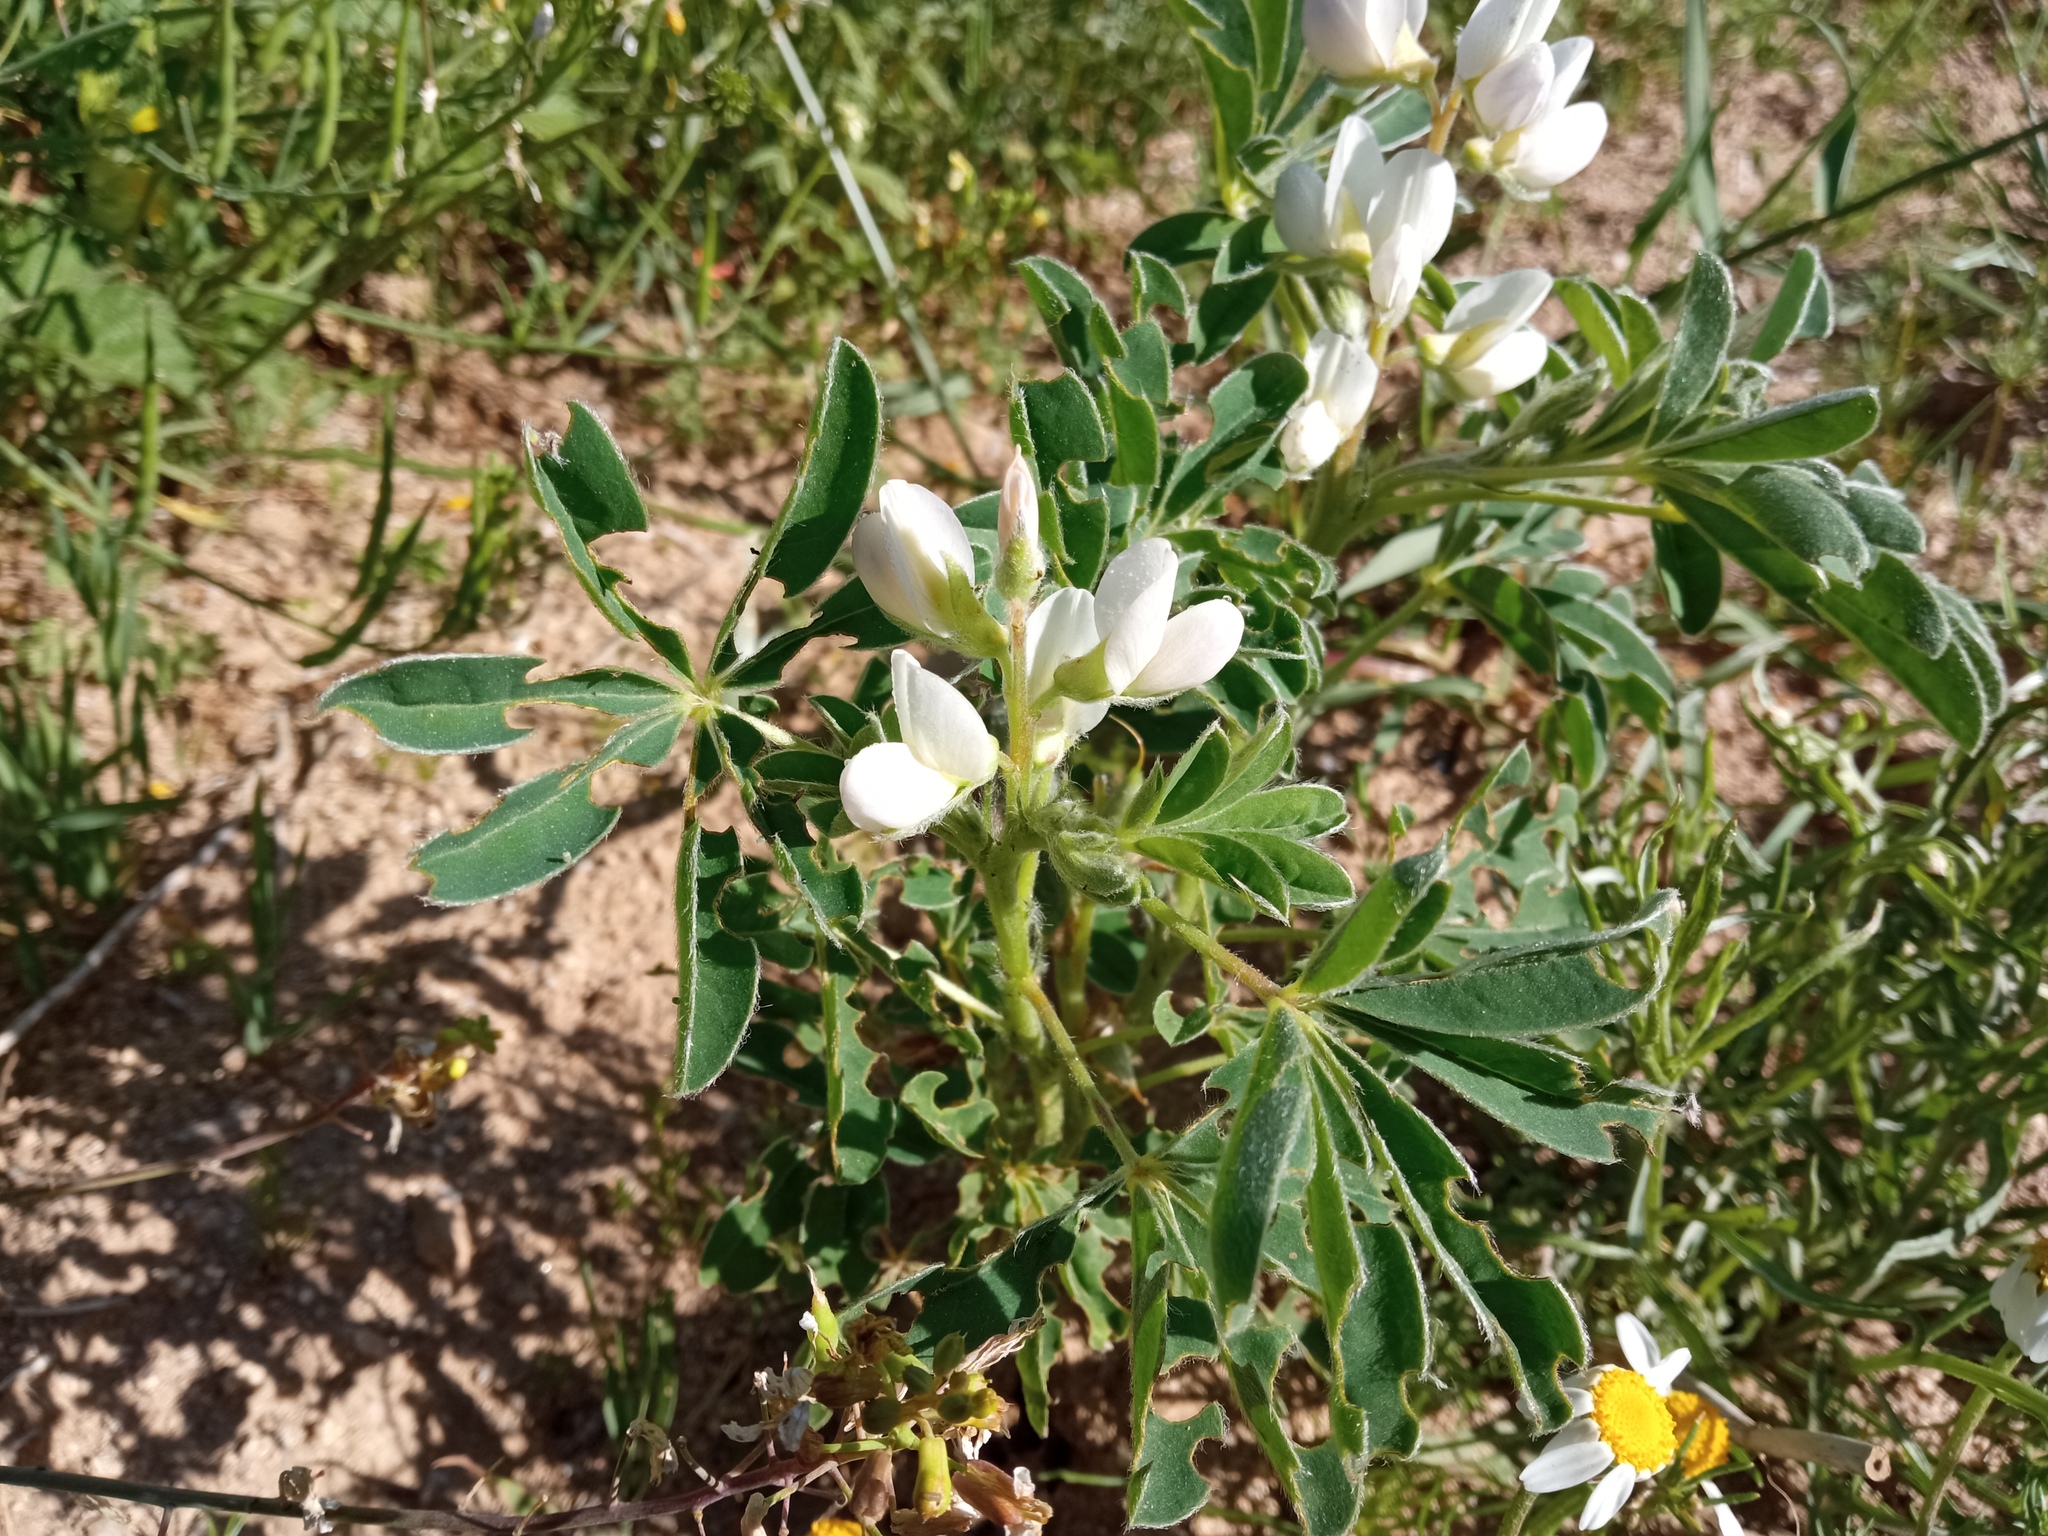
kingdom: Plantae
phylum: Tracheophyta
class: Magnoliopsida
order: Fabales
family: Fabaceae
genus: Lupinus
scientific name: Lupinus albus
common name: White lupin
